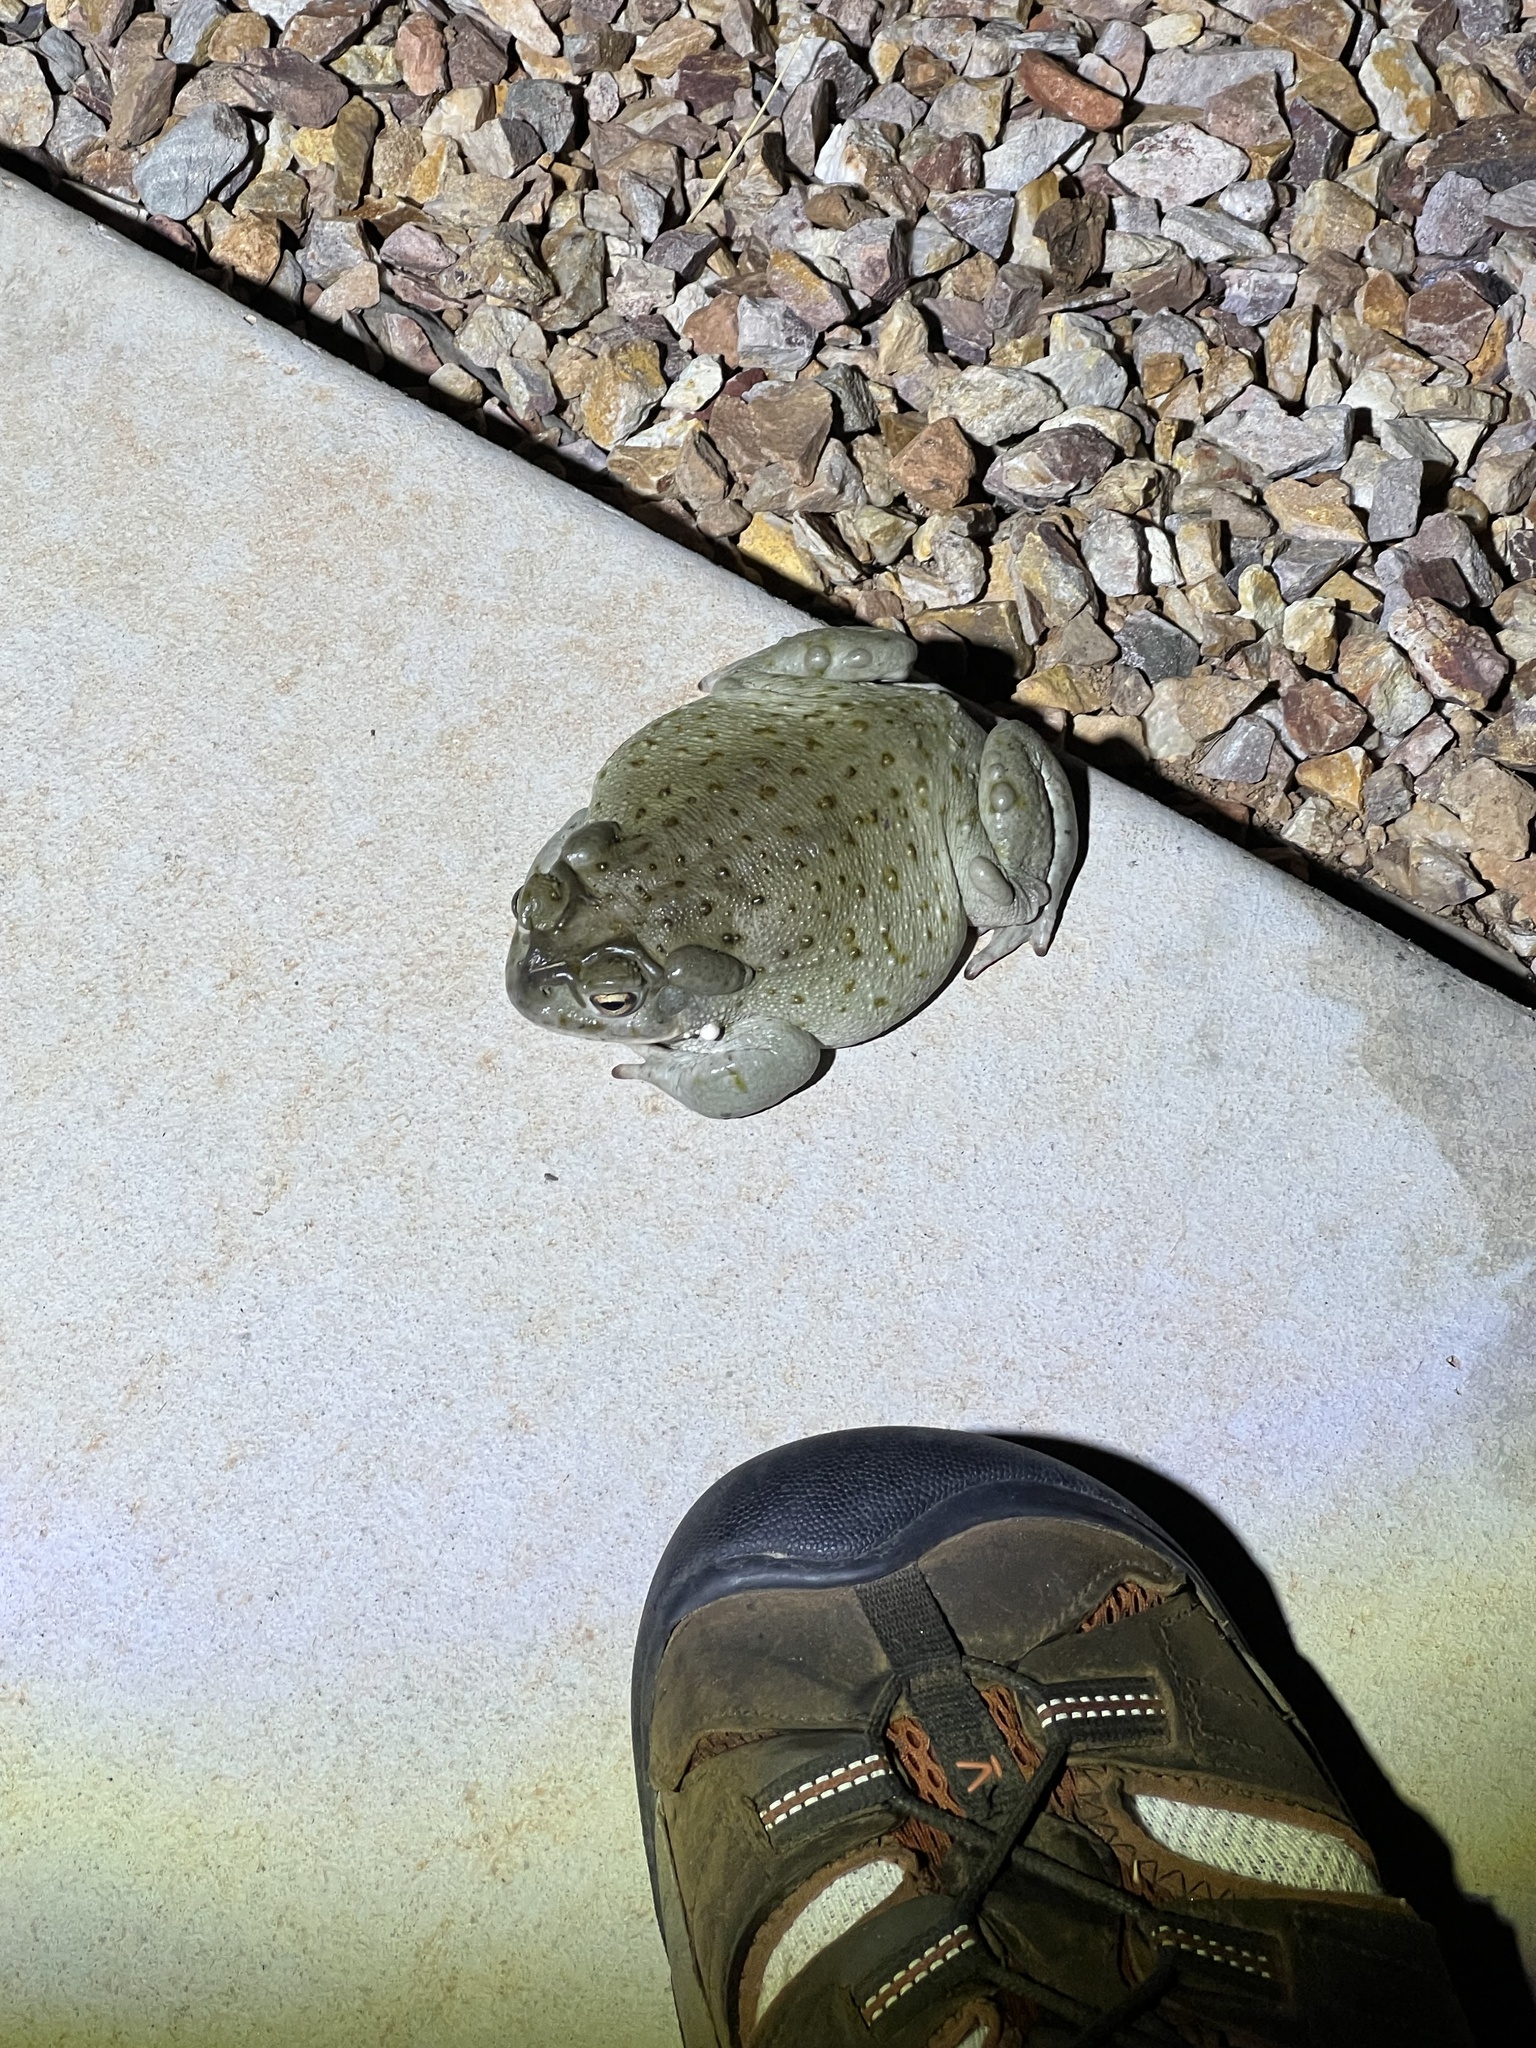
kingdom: Animalia
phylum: Chordata
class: Amphibia
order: Anura
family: Bufonidae
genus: Incilius
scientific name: Incilius alvarius
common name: Sonoran desert toad
